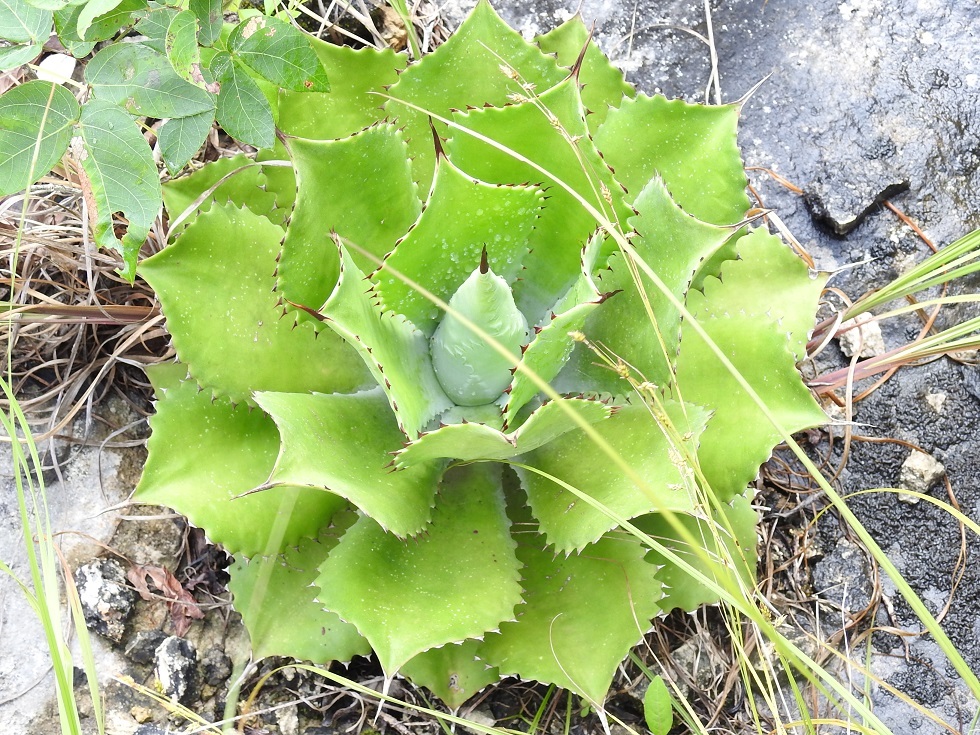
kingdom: Plantae
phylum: Tracheophyta
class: Liliopsida
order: Asparagales
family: Asparagaceae
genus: Agave
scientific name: Agave congesta
